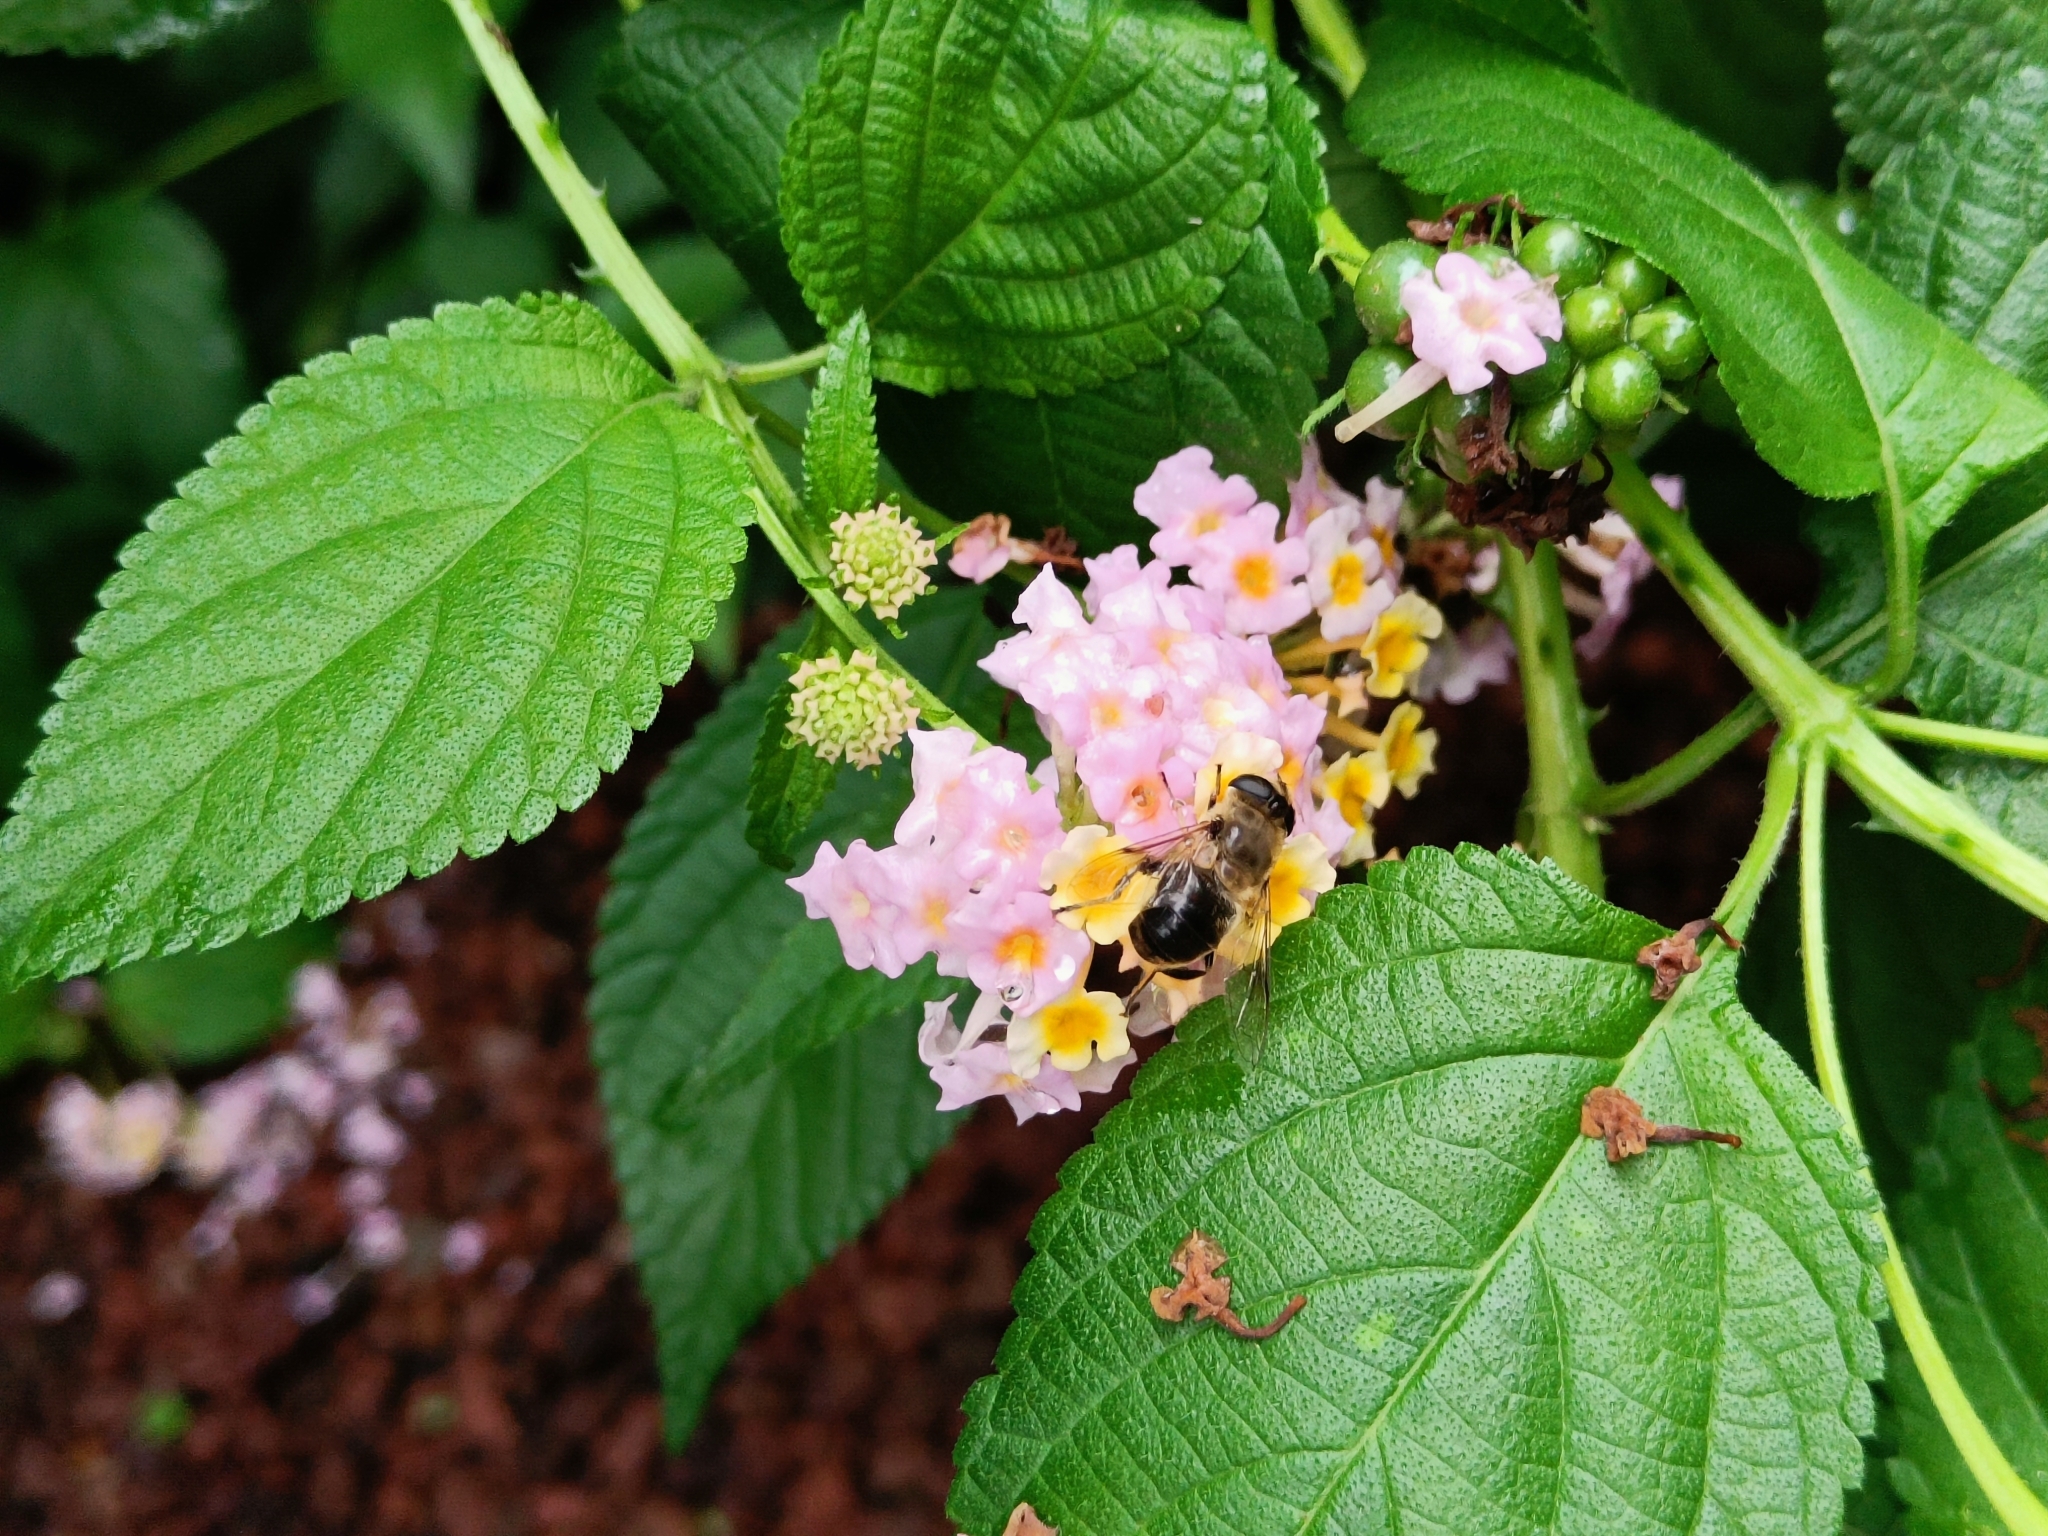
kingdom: Animalia
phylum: Arthropoda
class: Insecta
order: Diptera
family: Syrphidae
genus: Eristalis
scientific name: Eristalis tenax
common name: Drone fly
